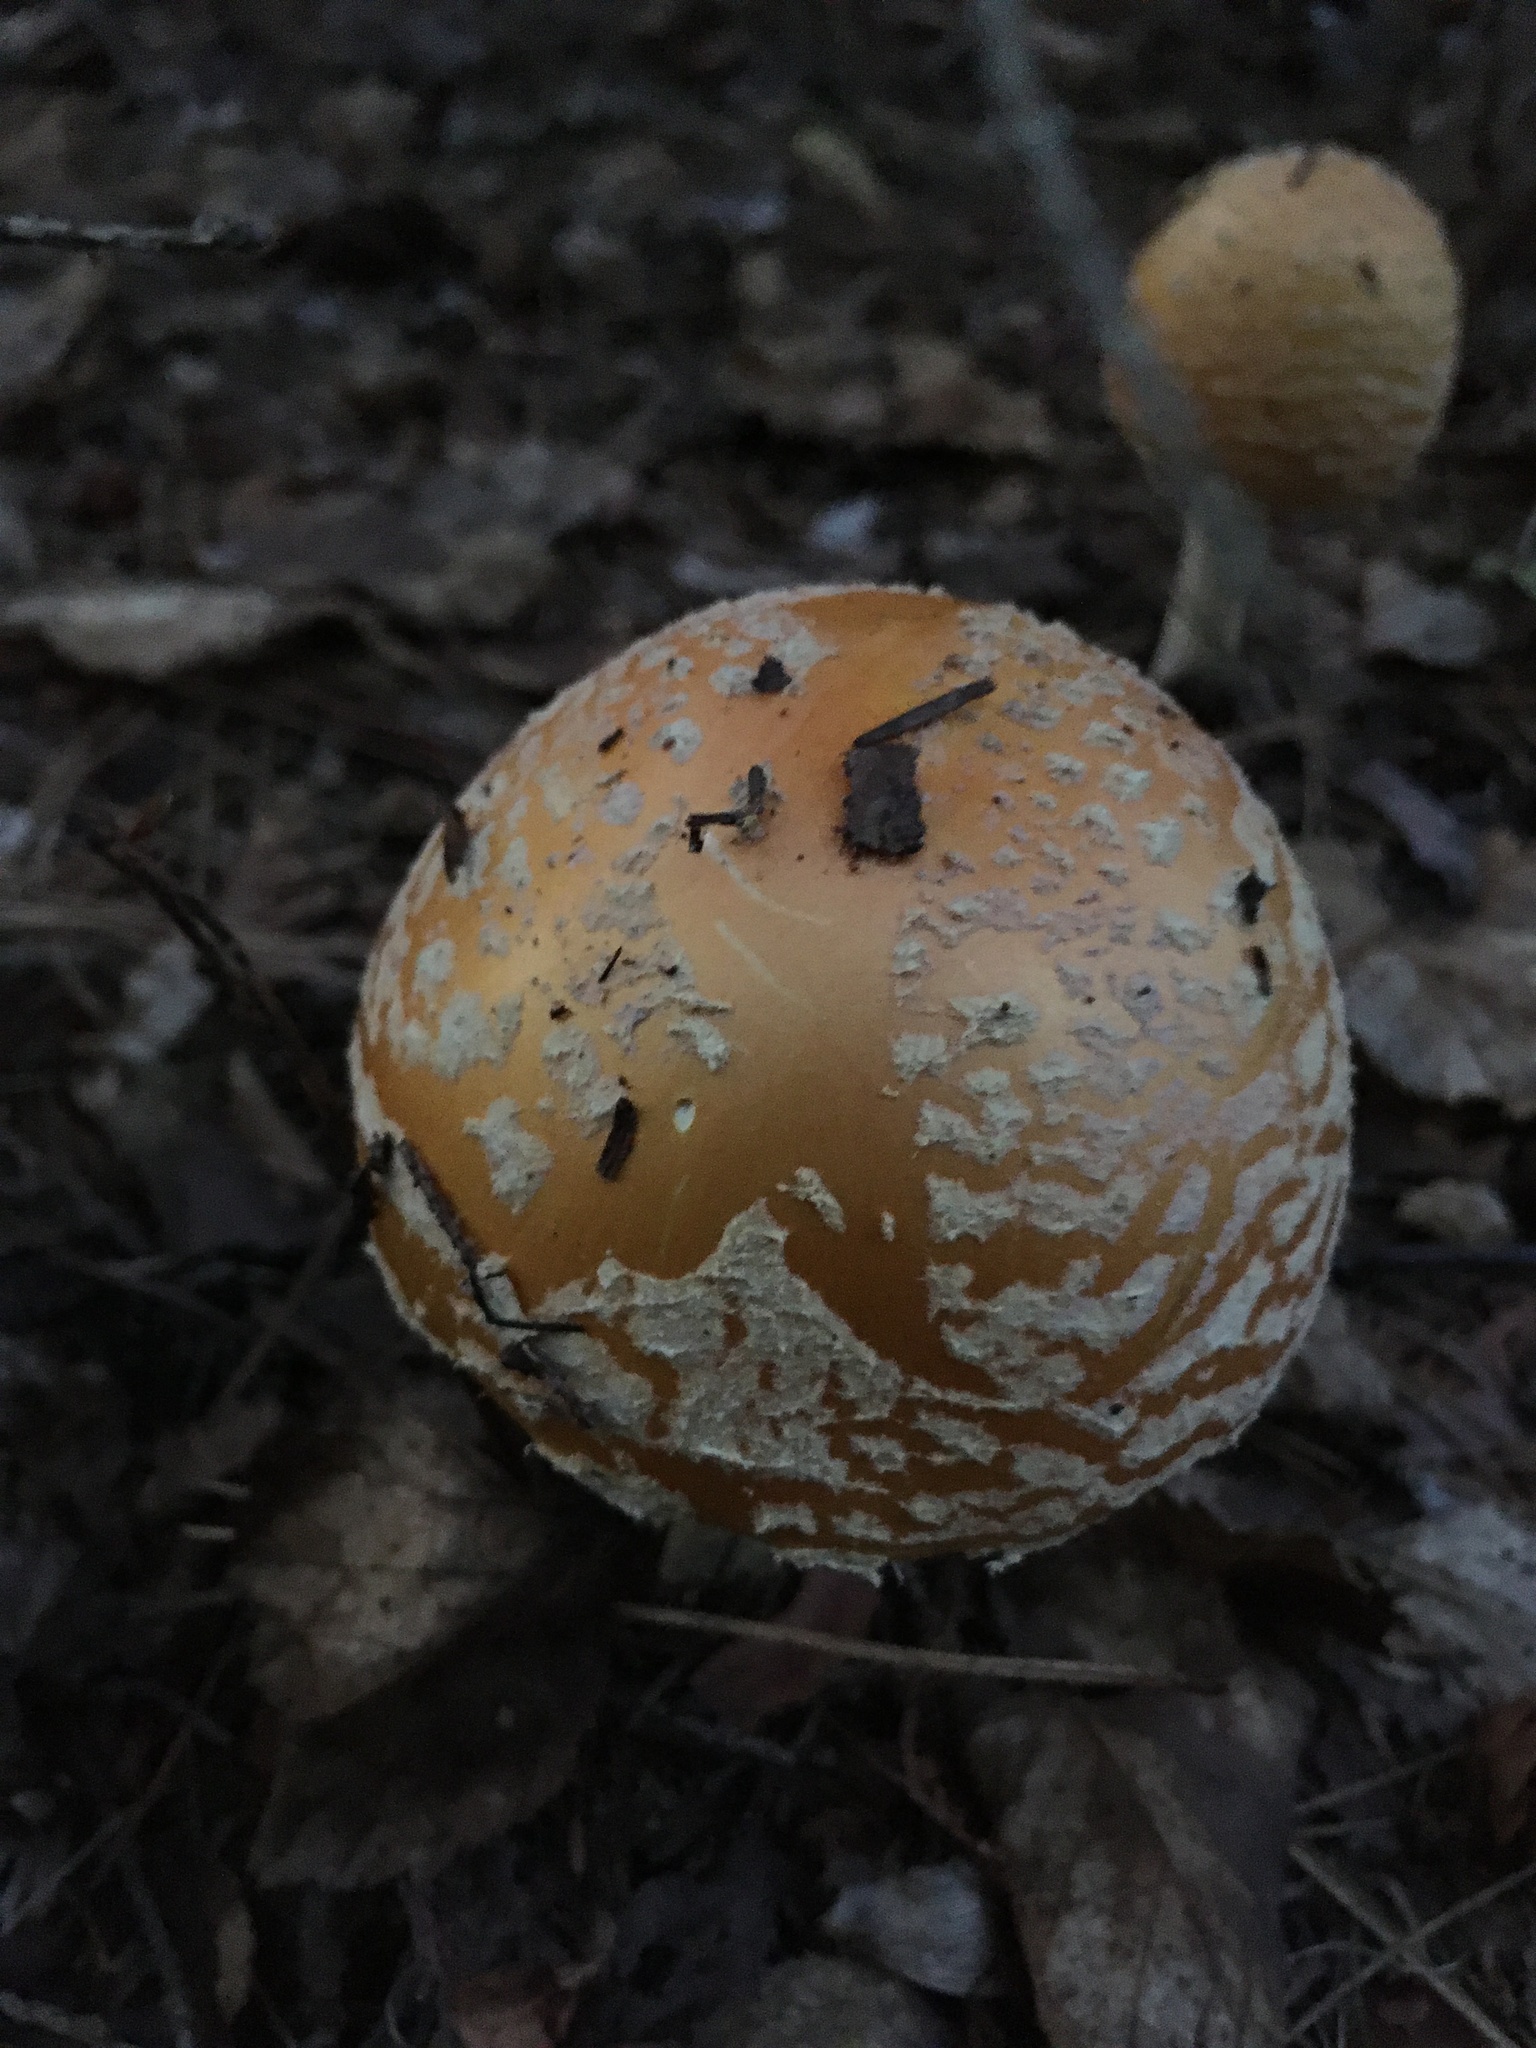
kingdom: Fungi
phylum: Basidiomycota
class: Agaricomycetes
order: Agaricales
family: Amanitaceae
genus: Amanita
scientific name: Amanita muscaria
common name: Fly agaric
